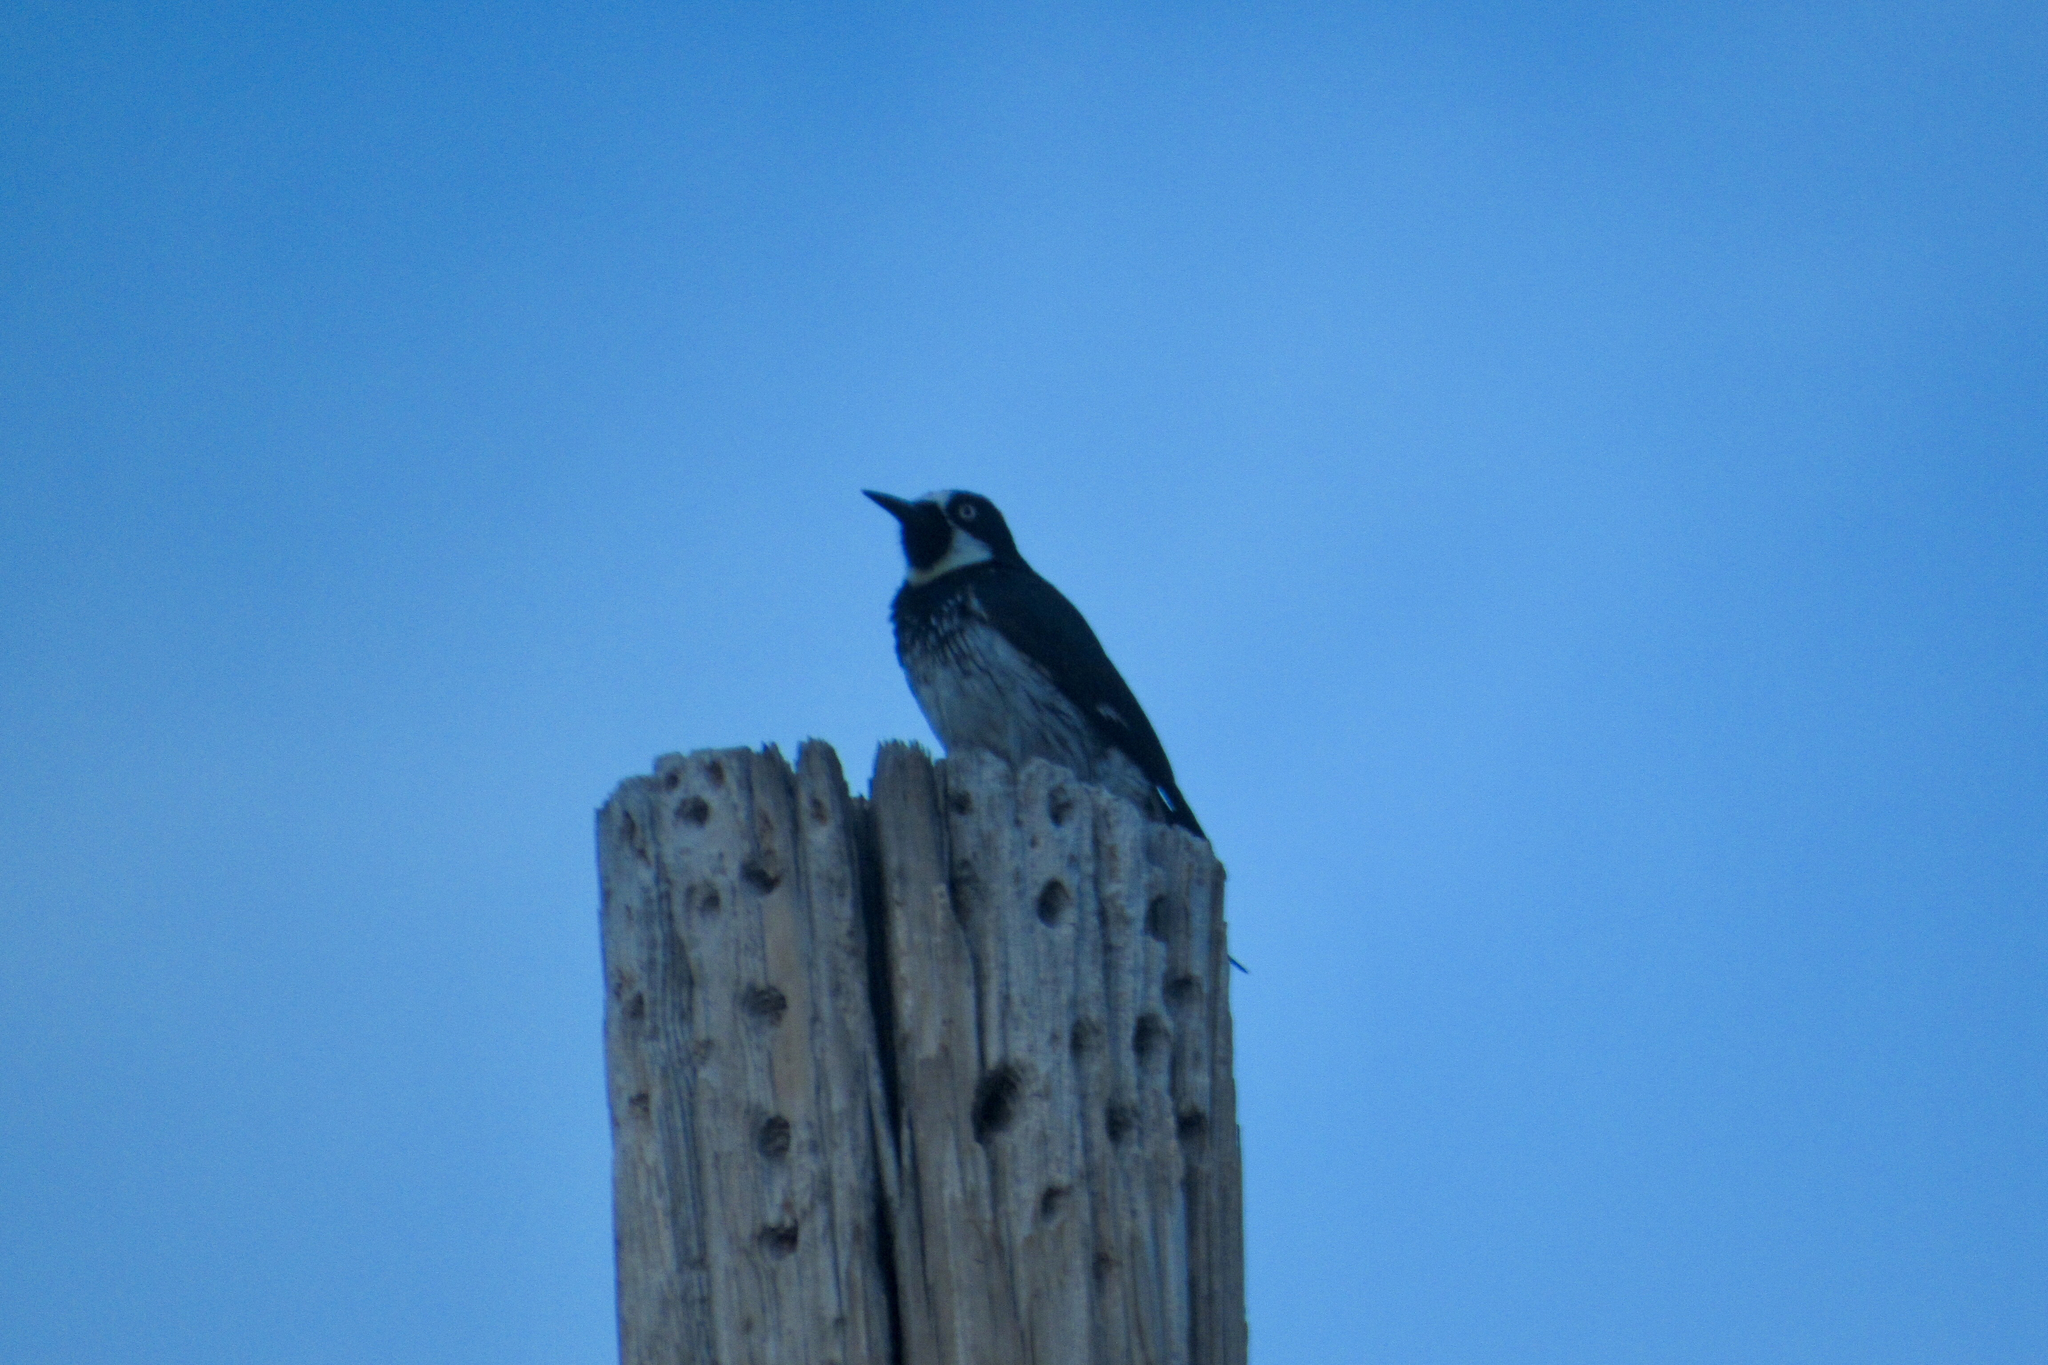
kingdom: Animalia
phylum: Chordata
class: Aves
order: Piciformes
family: Picidae
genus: Melanerpes
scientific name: Melanerpes formicivorus
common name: Acorn woodpecker
